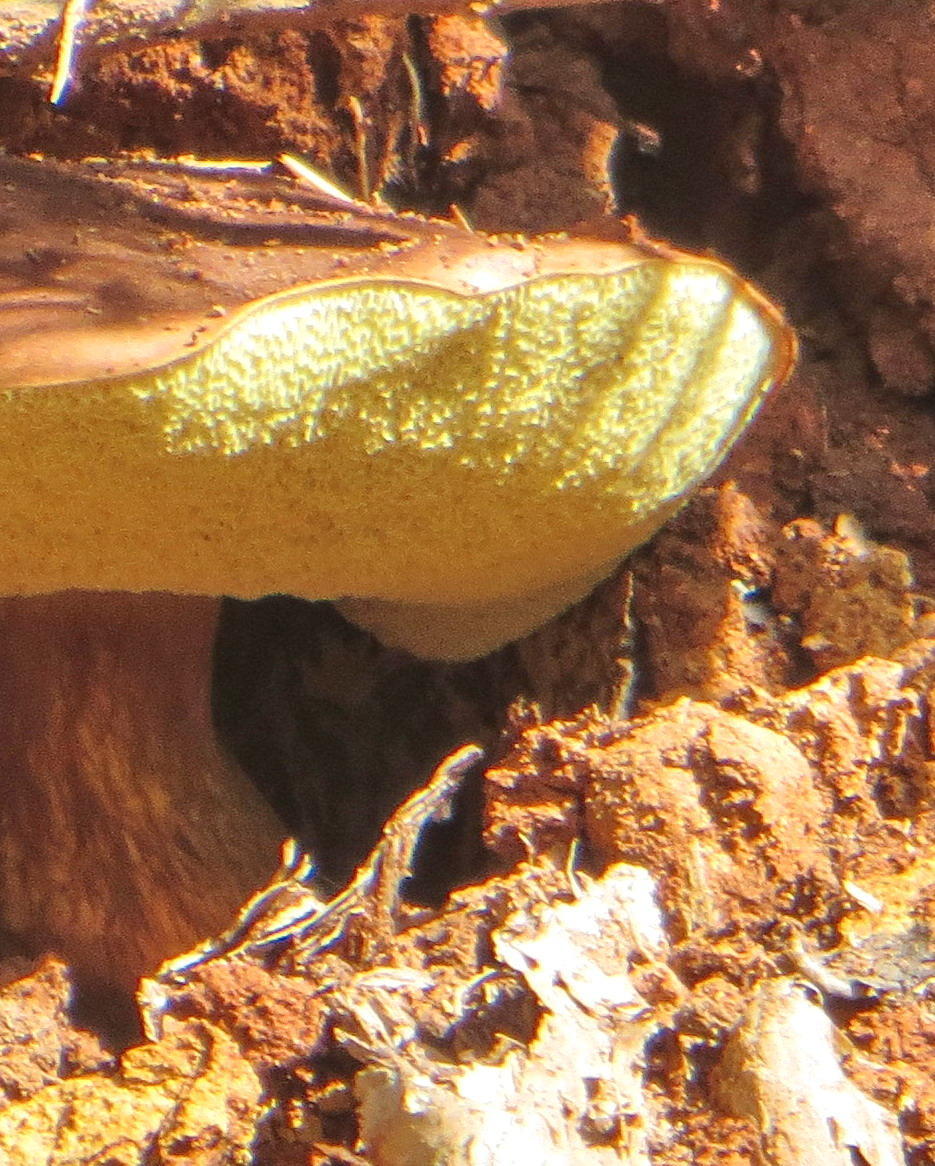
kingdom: Fungi
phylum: Basidiomycota
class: Agaricomycetes
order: Boletales
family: Boletaceae
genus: Imleria
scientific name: Imleria badia
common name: Bay bolete
